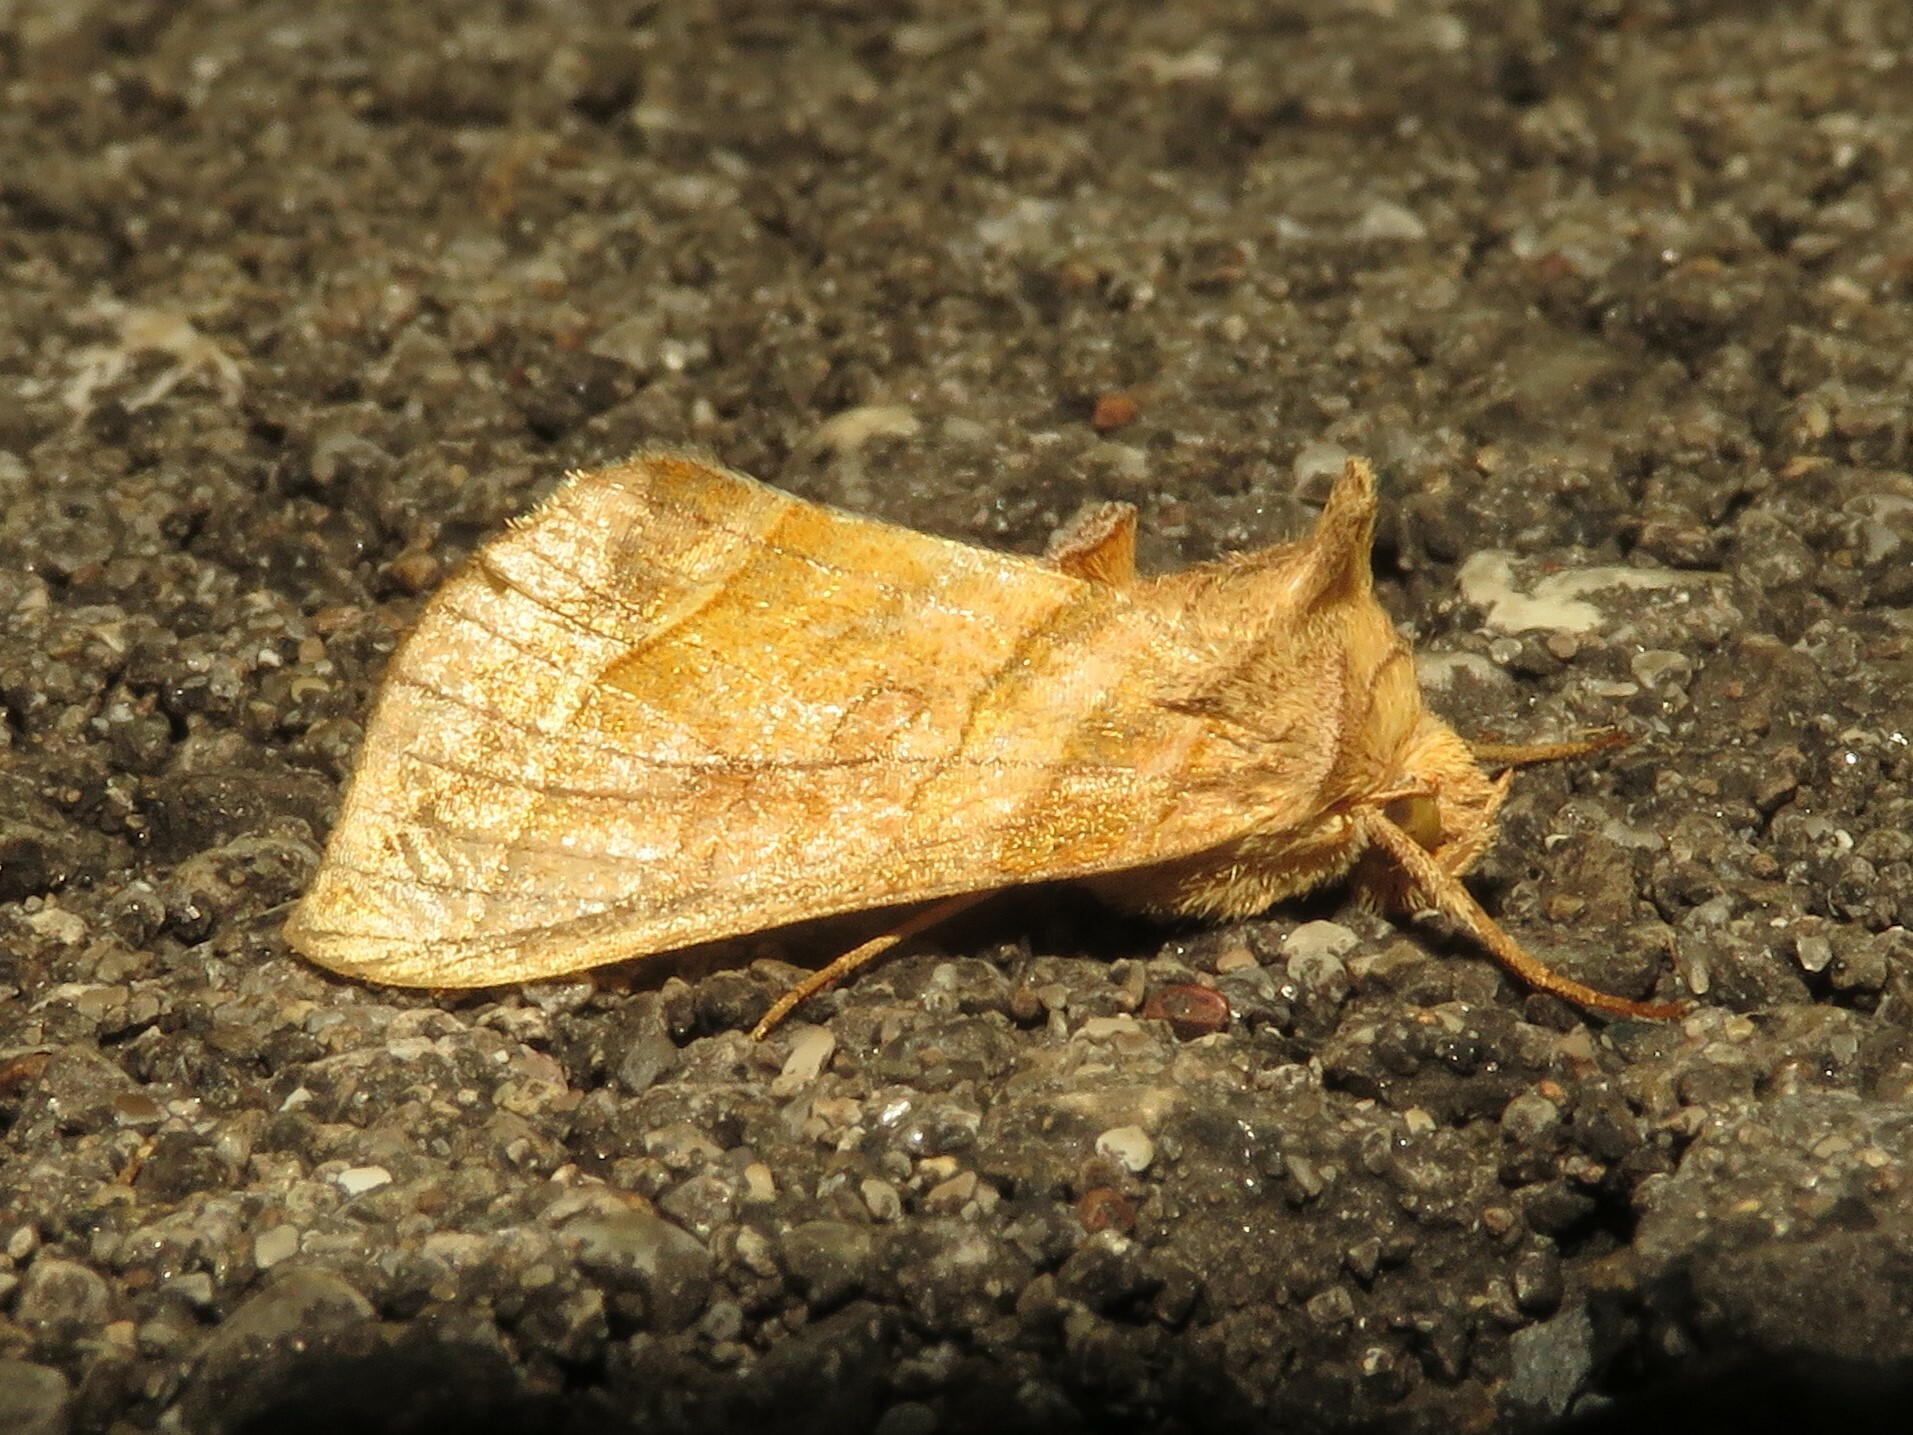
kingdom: Animalia
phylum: Arthropoda
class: Insecta
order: Lepidoptera
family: Noctuidae
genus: Diachrysia
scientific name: Diachrysia aereoides
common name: Dark-spotted looper moth
